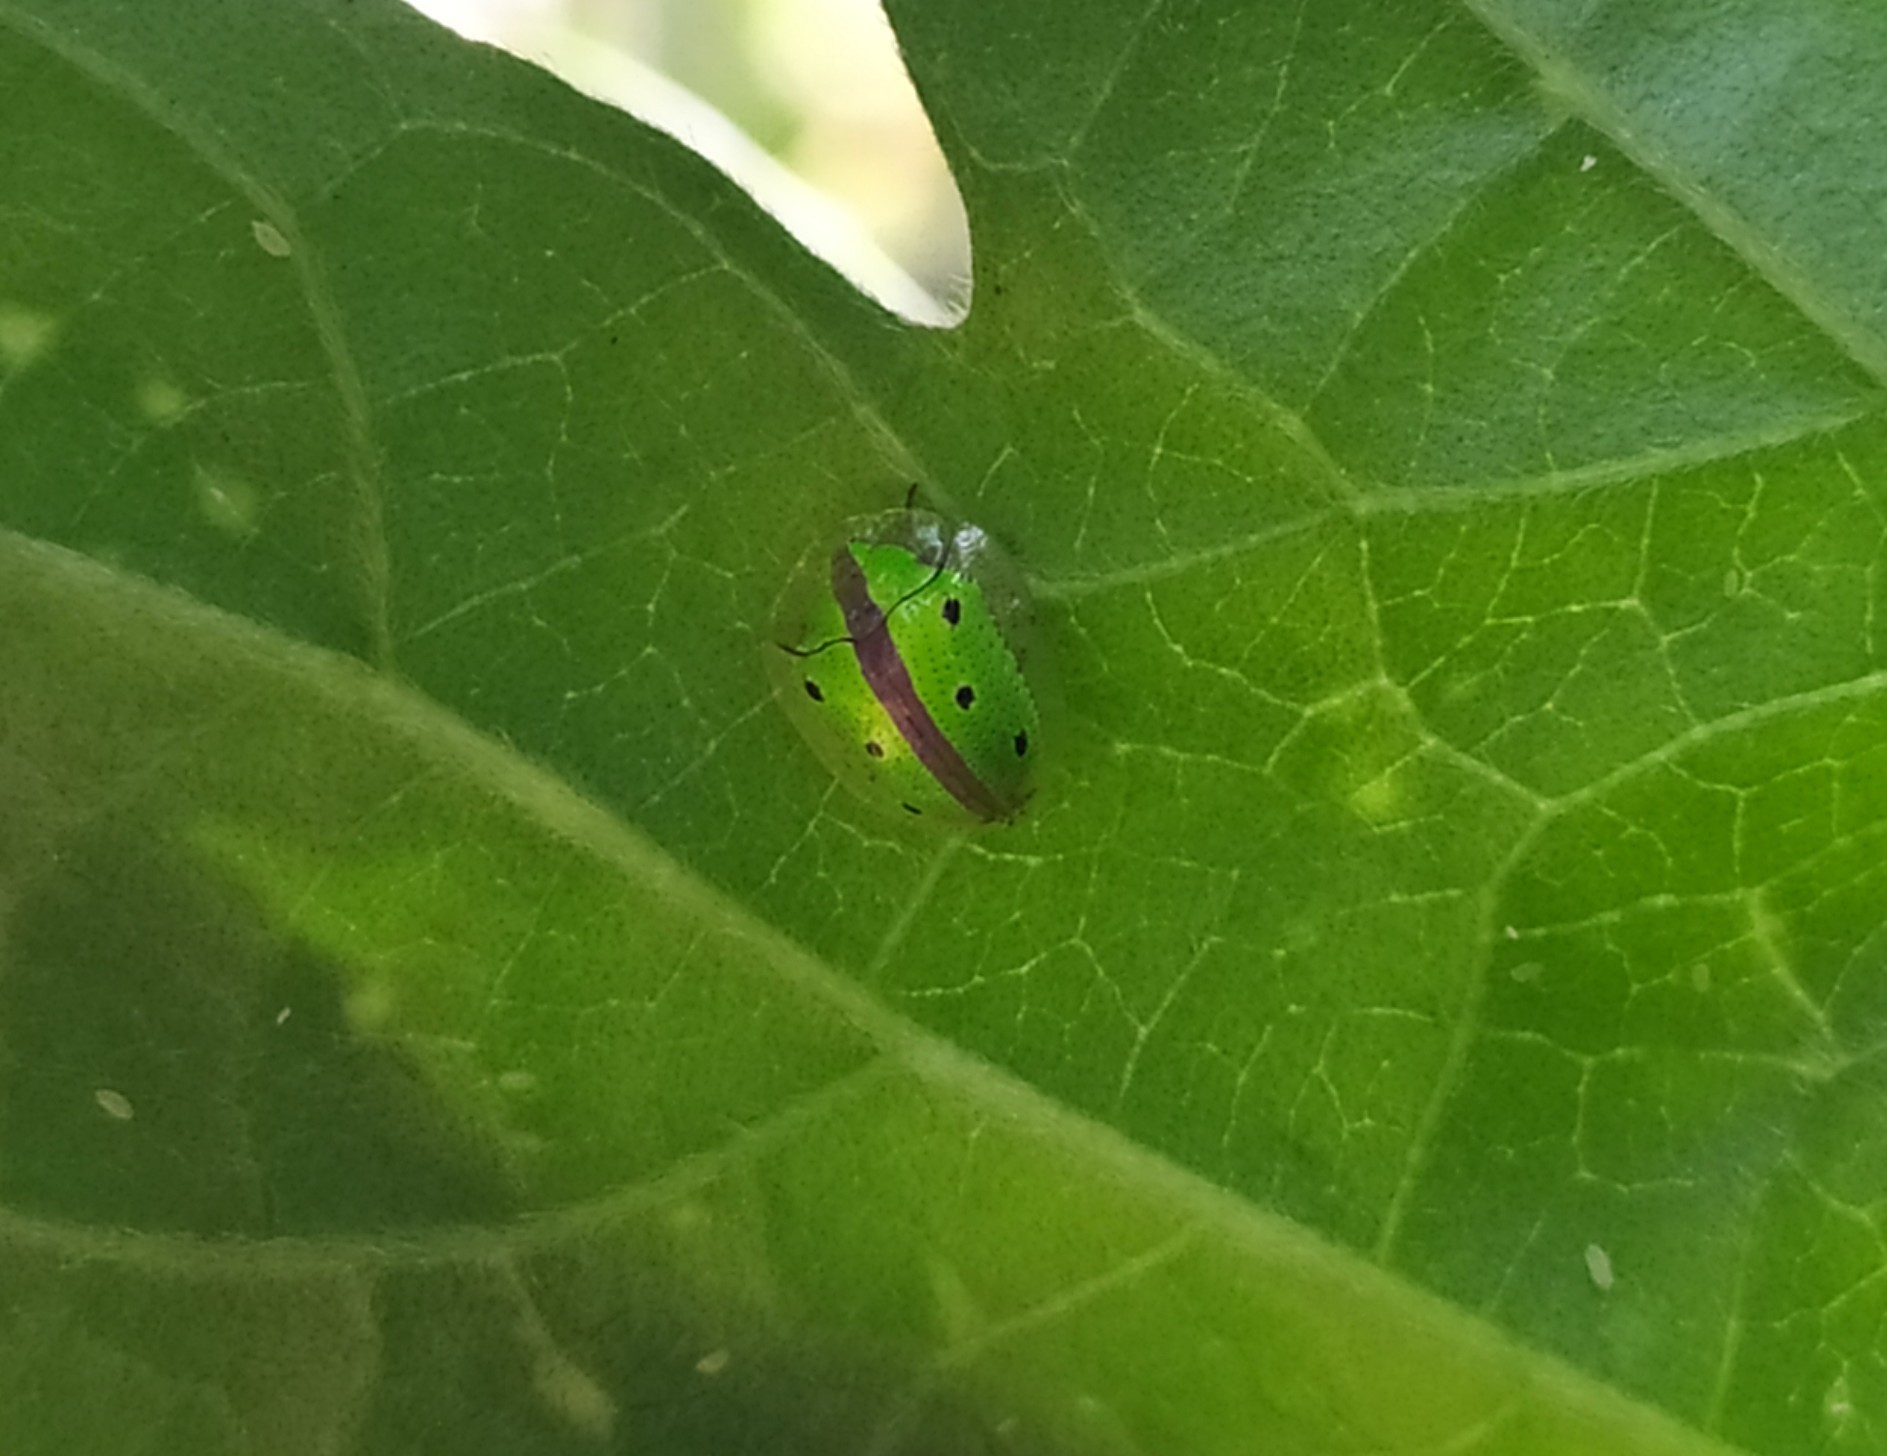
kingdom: Animalia
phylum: Arthropoda
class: Insecta
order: Coleoptera
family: Chrysomelidae
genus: Chiridopsis
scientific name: Chiridopsis bipunctata
